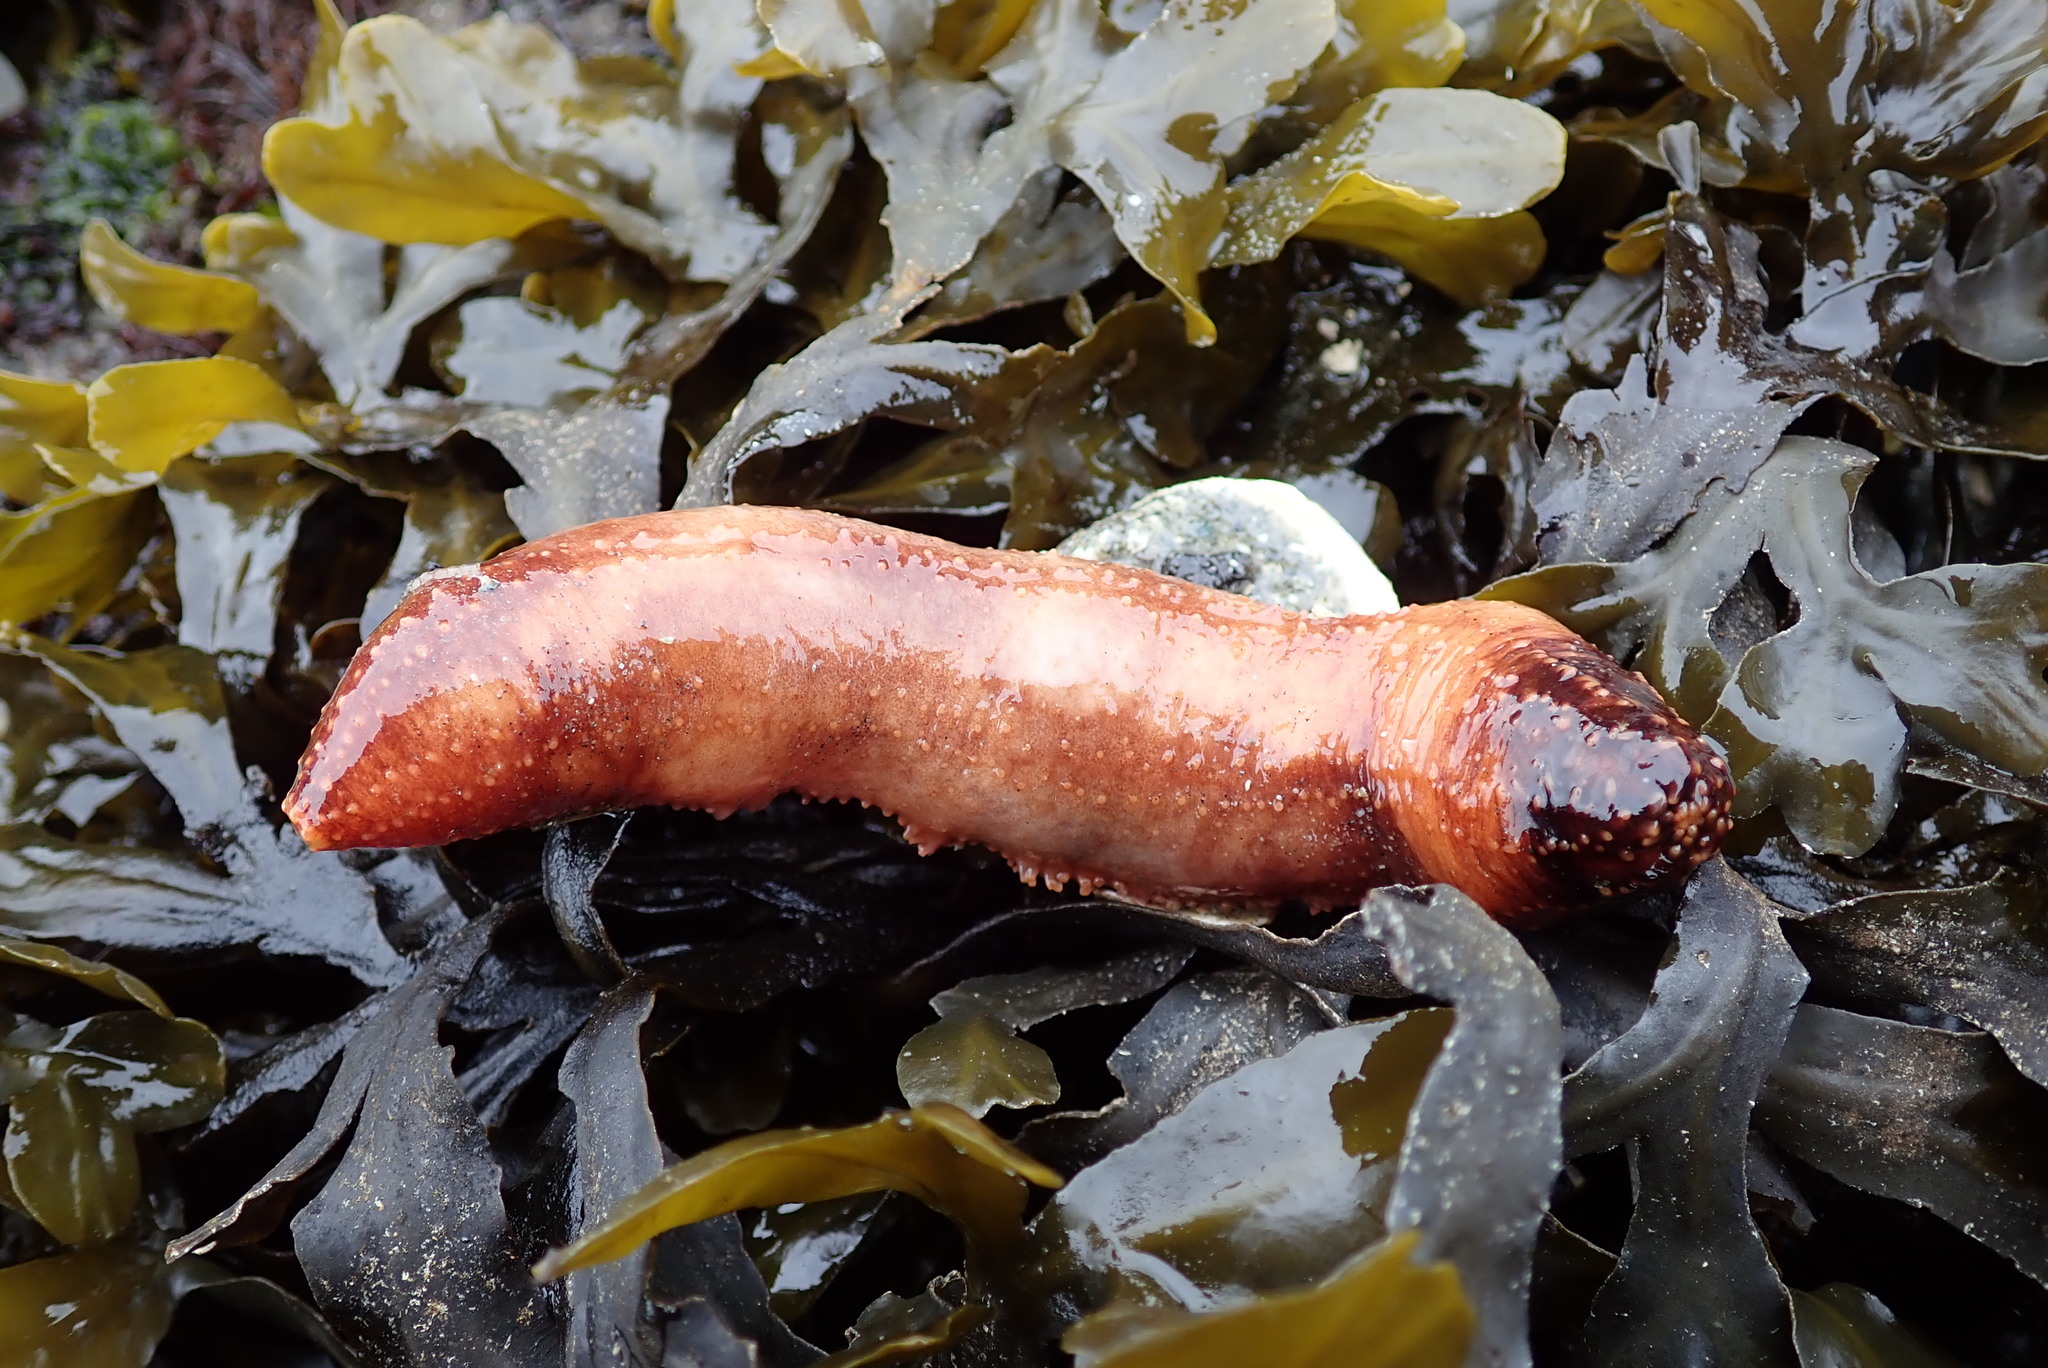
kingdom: Animalia
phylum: Echinodermata
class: Holothuroidea
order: Dendrochirotida
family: Cucumariidae
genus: Cucumaria
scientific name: Cucumaria miniata
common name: Orange sea cucumber
